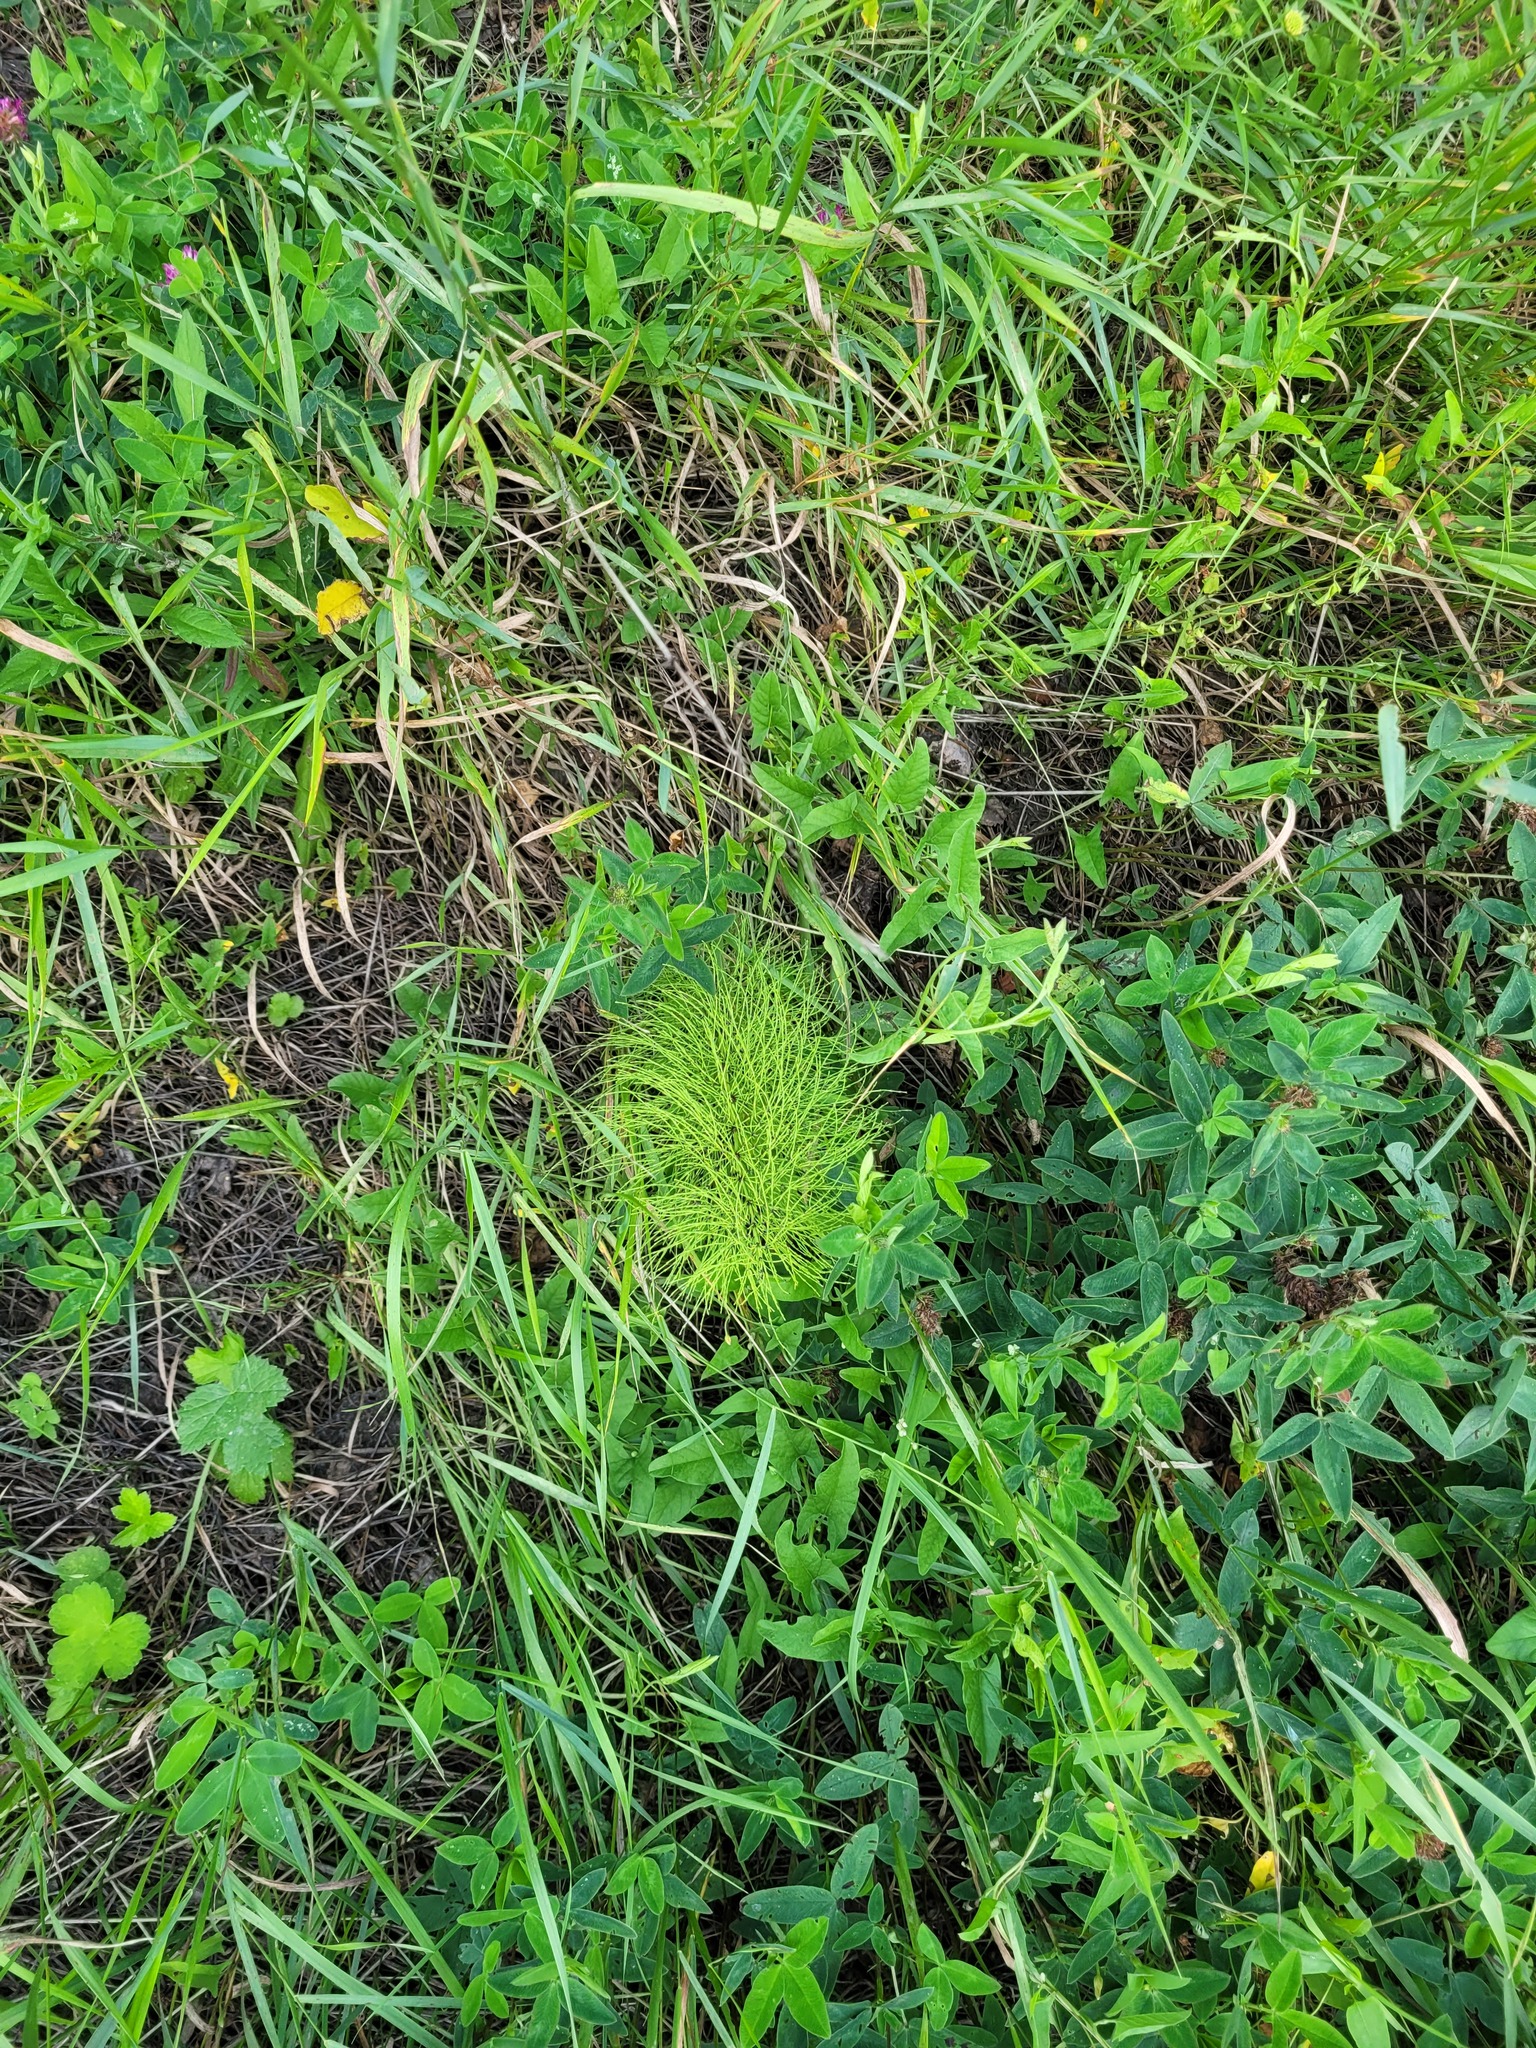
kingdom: Plantae
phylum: Tracheophyta
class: Polypodiopsida
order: Equisetales
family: Equisetaceae
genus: Equisetum
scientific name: Equisetum sylvaticum
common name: Wood horsetail
